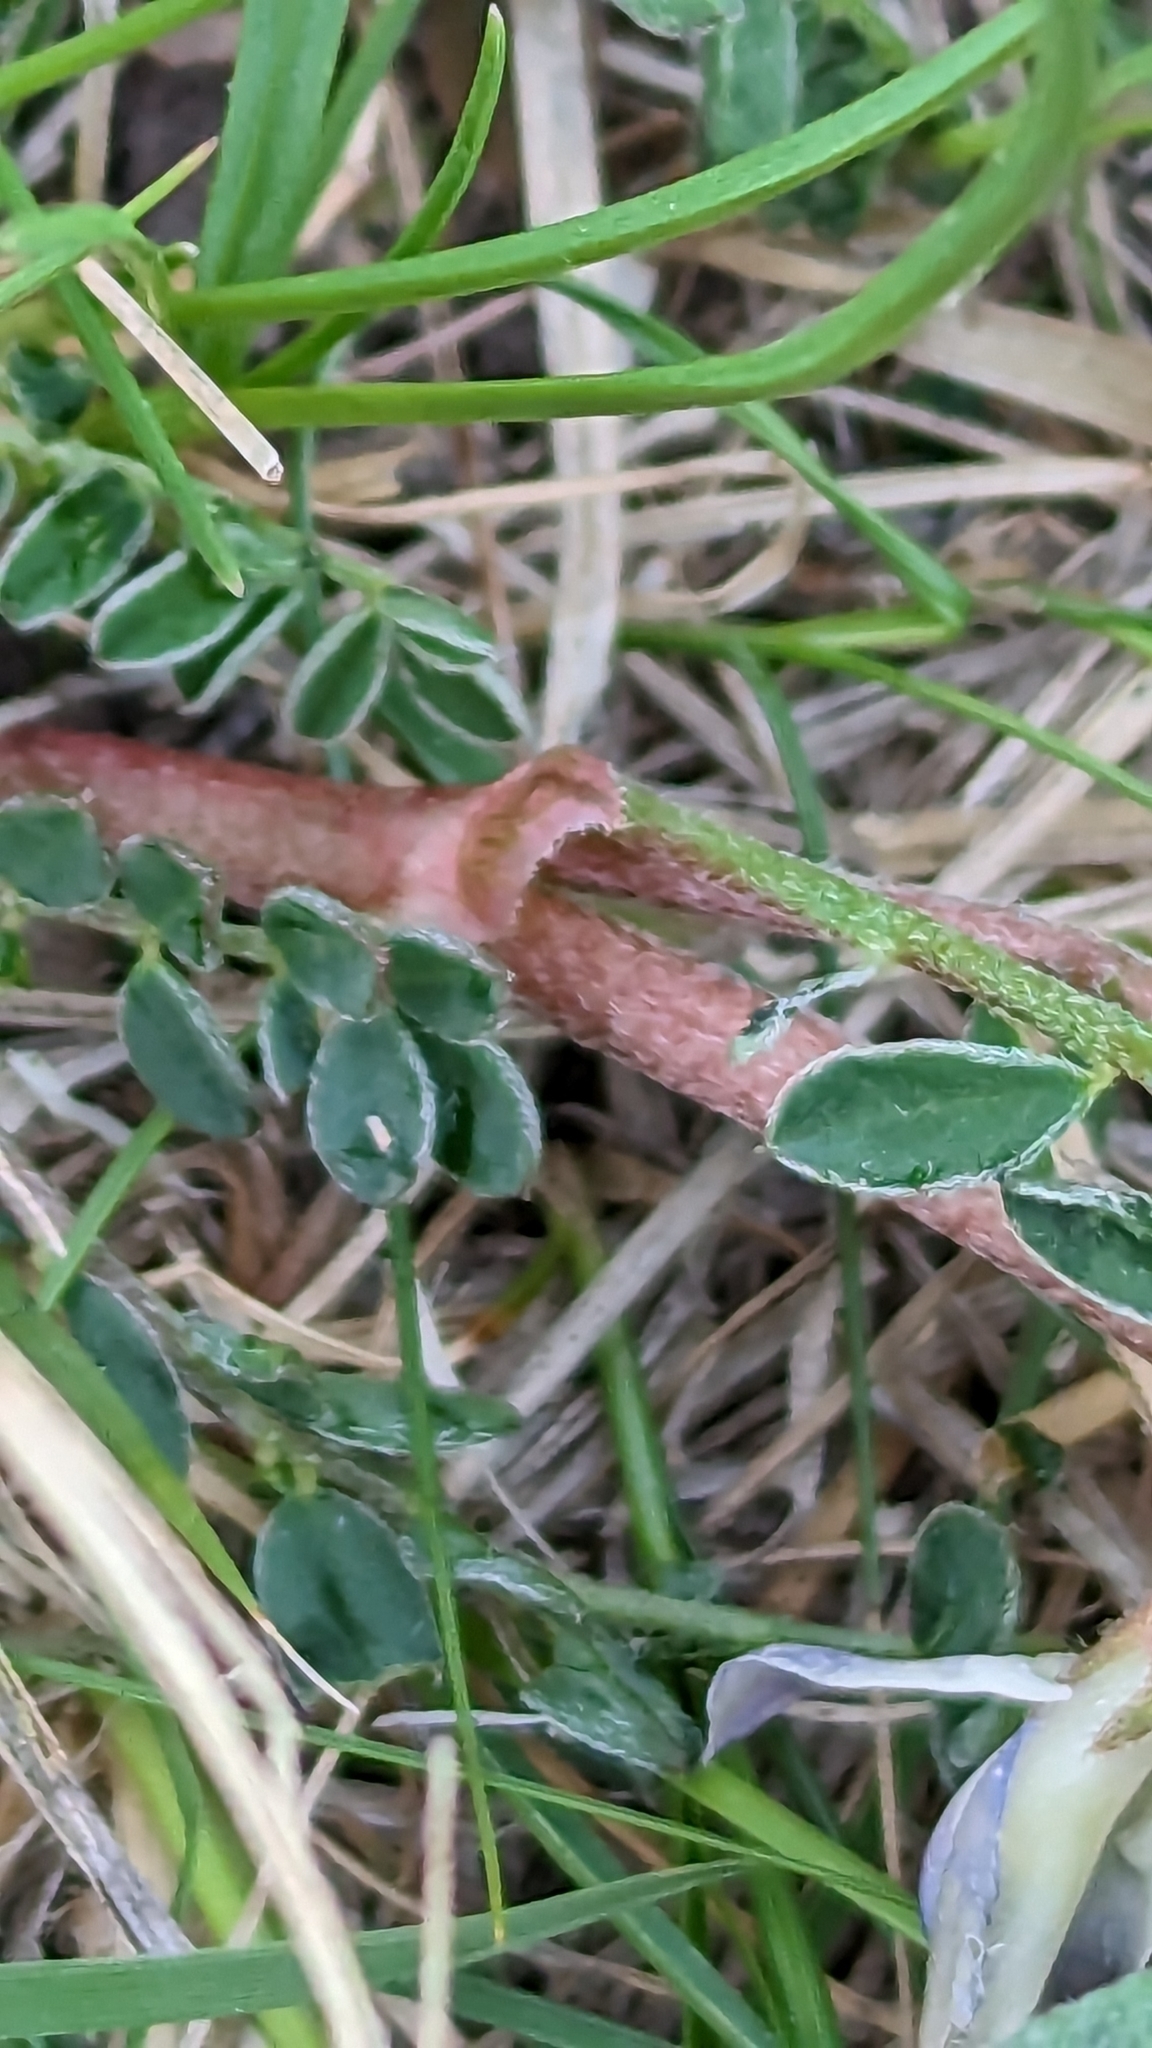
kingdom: Plantae
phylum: Tracheophyta
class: Magnoliopsida
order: Fabales
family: Fabaceae
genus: Astragalus
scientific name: Astragalus crassicarpus
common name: Ground-plum milk-vetch
